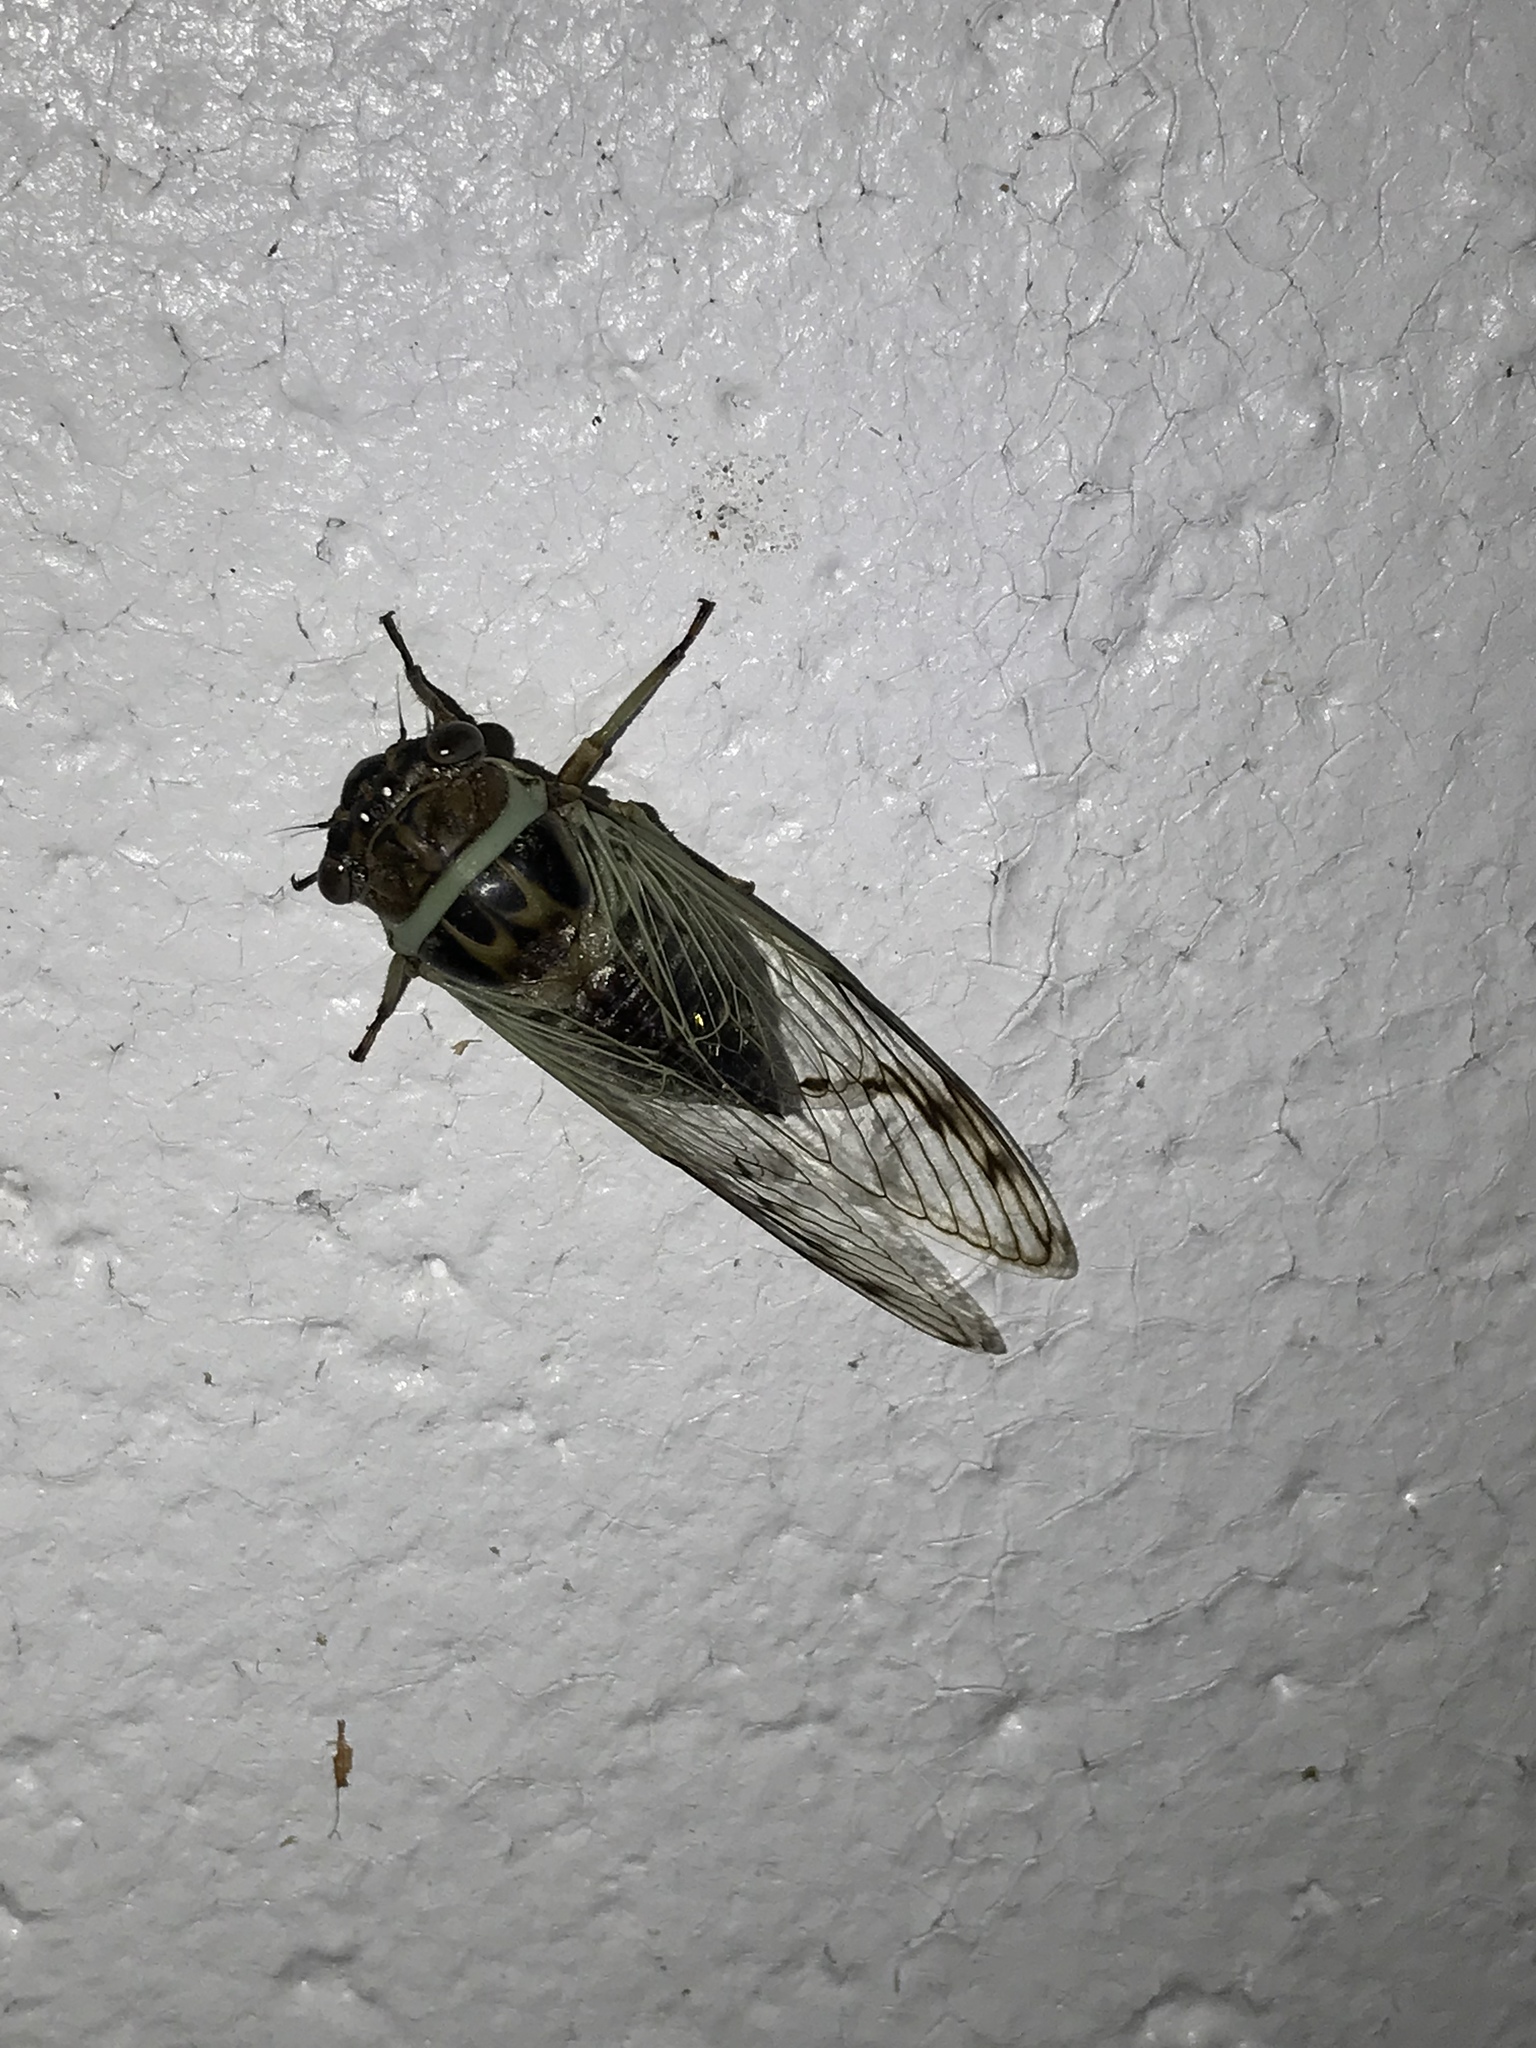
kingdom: Animalia
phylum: Arthropoda
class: Insecta
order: Hemiptera
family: Cicadidae
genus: Diceroprocta
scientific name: Diceroprocta marevagans
